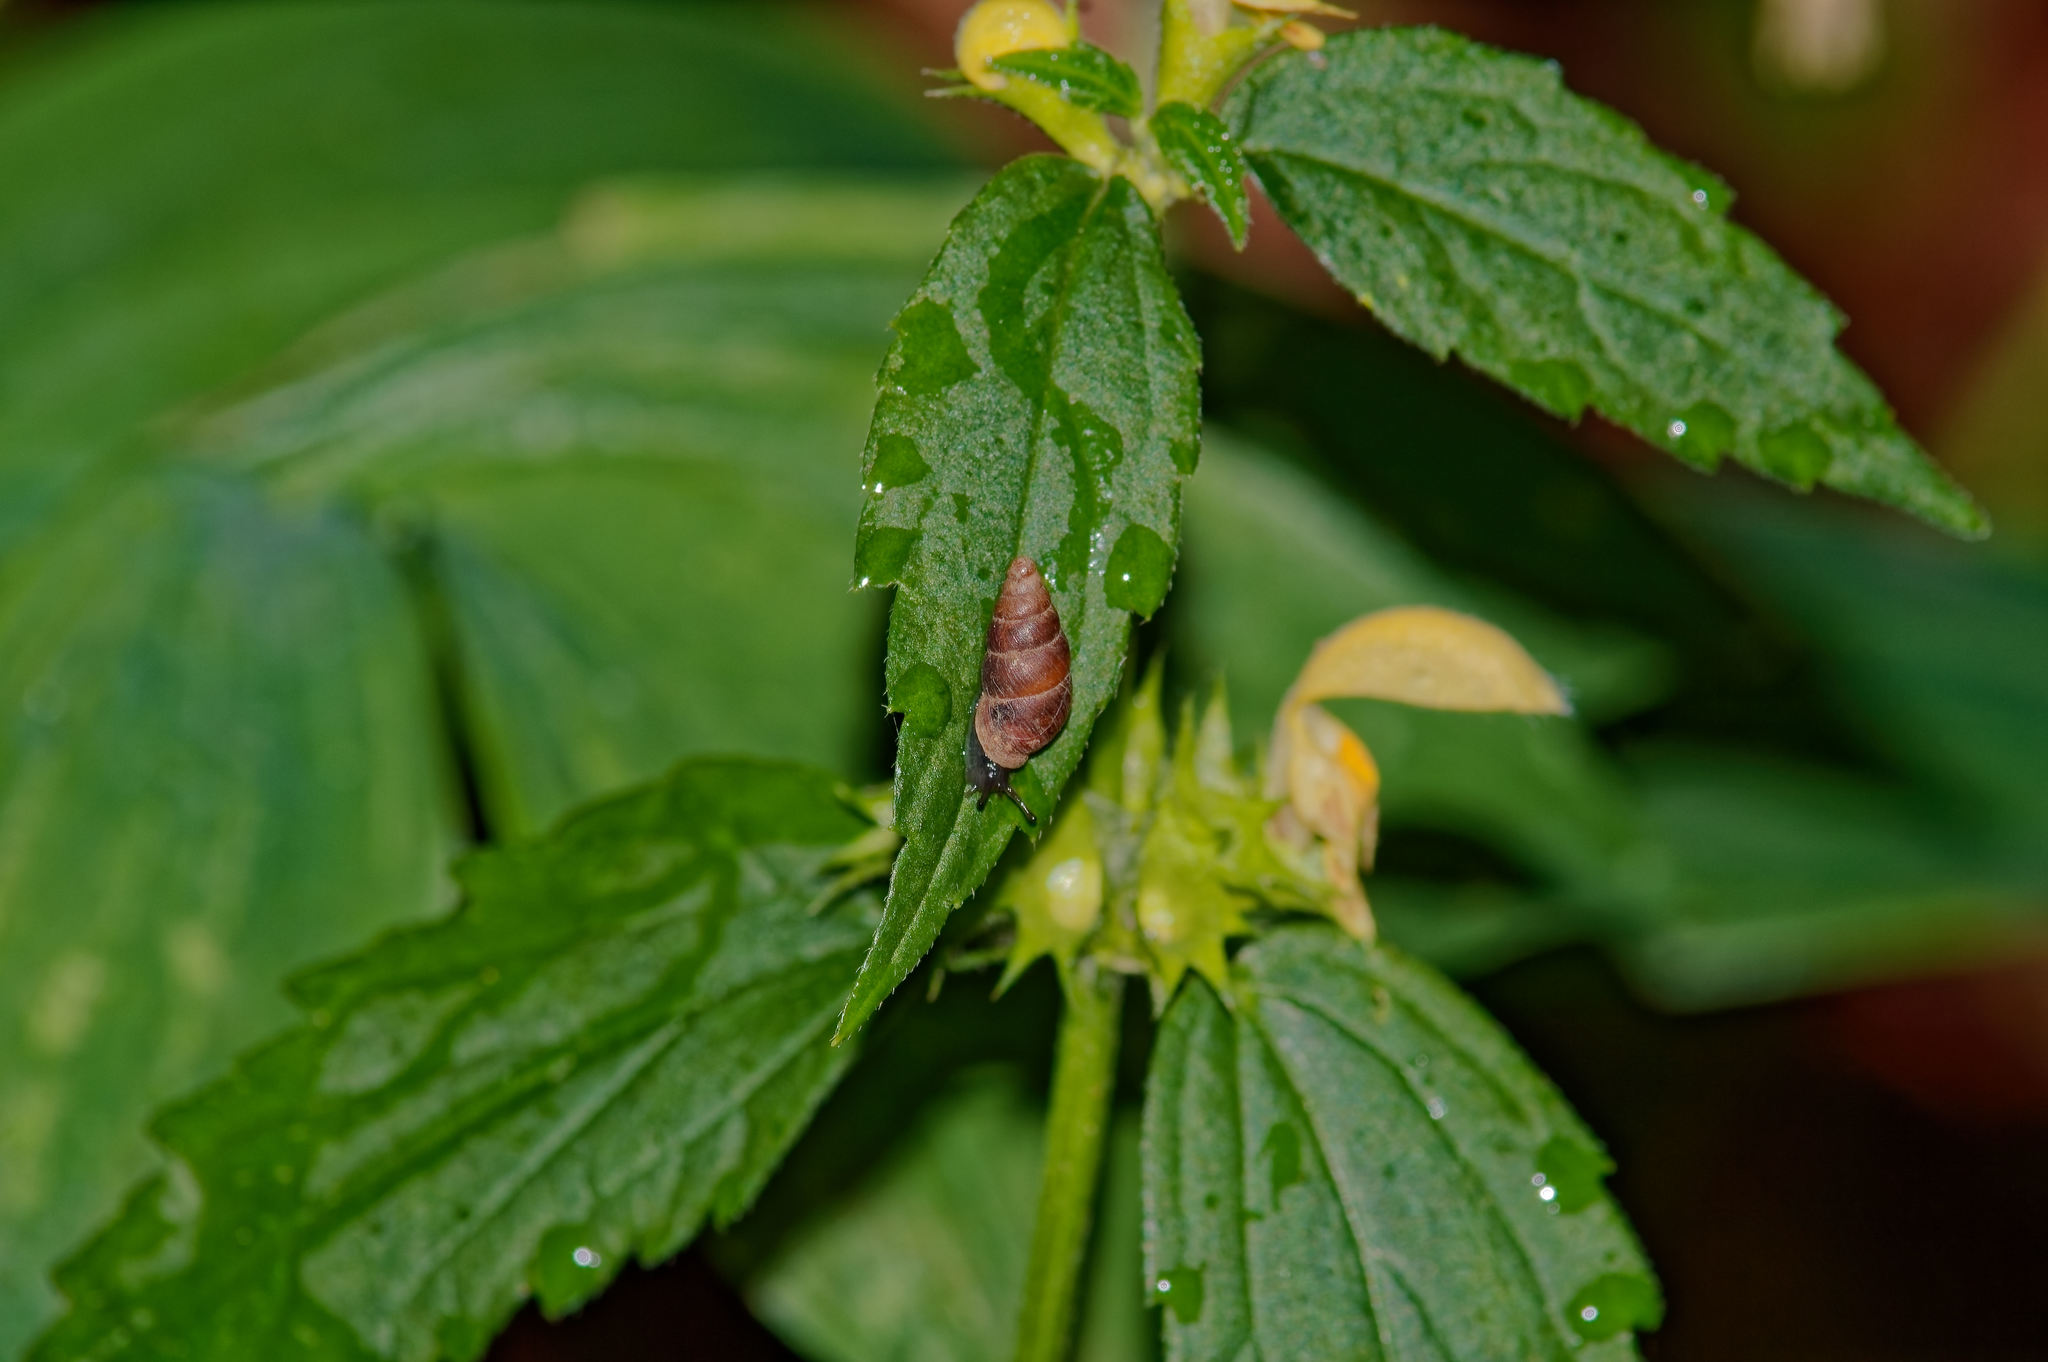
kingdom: Animalia
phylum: Mollusca
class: Gastropoda
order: Stylommatophora
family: Enidae
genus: Ena
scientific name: Ena montana
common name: Mountain bulin
